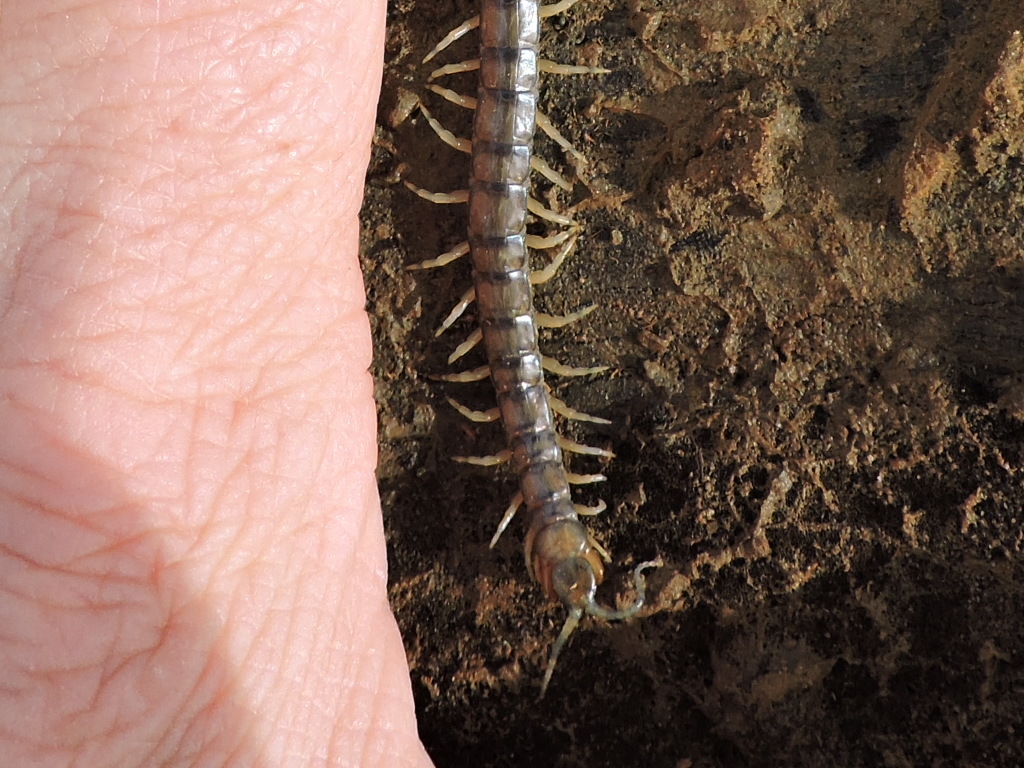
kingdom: Animalia
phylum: Arthropoda
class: Chilopoda
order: Scolopendromorpha
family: Scolopendridae
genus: Hemiscolopendra
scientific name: Hemiscolopendra marginata
